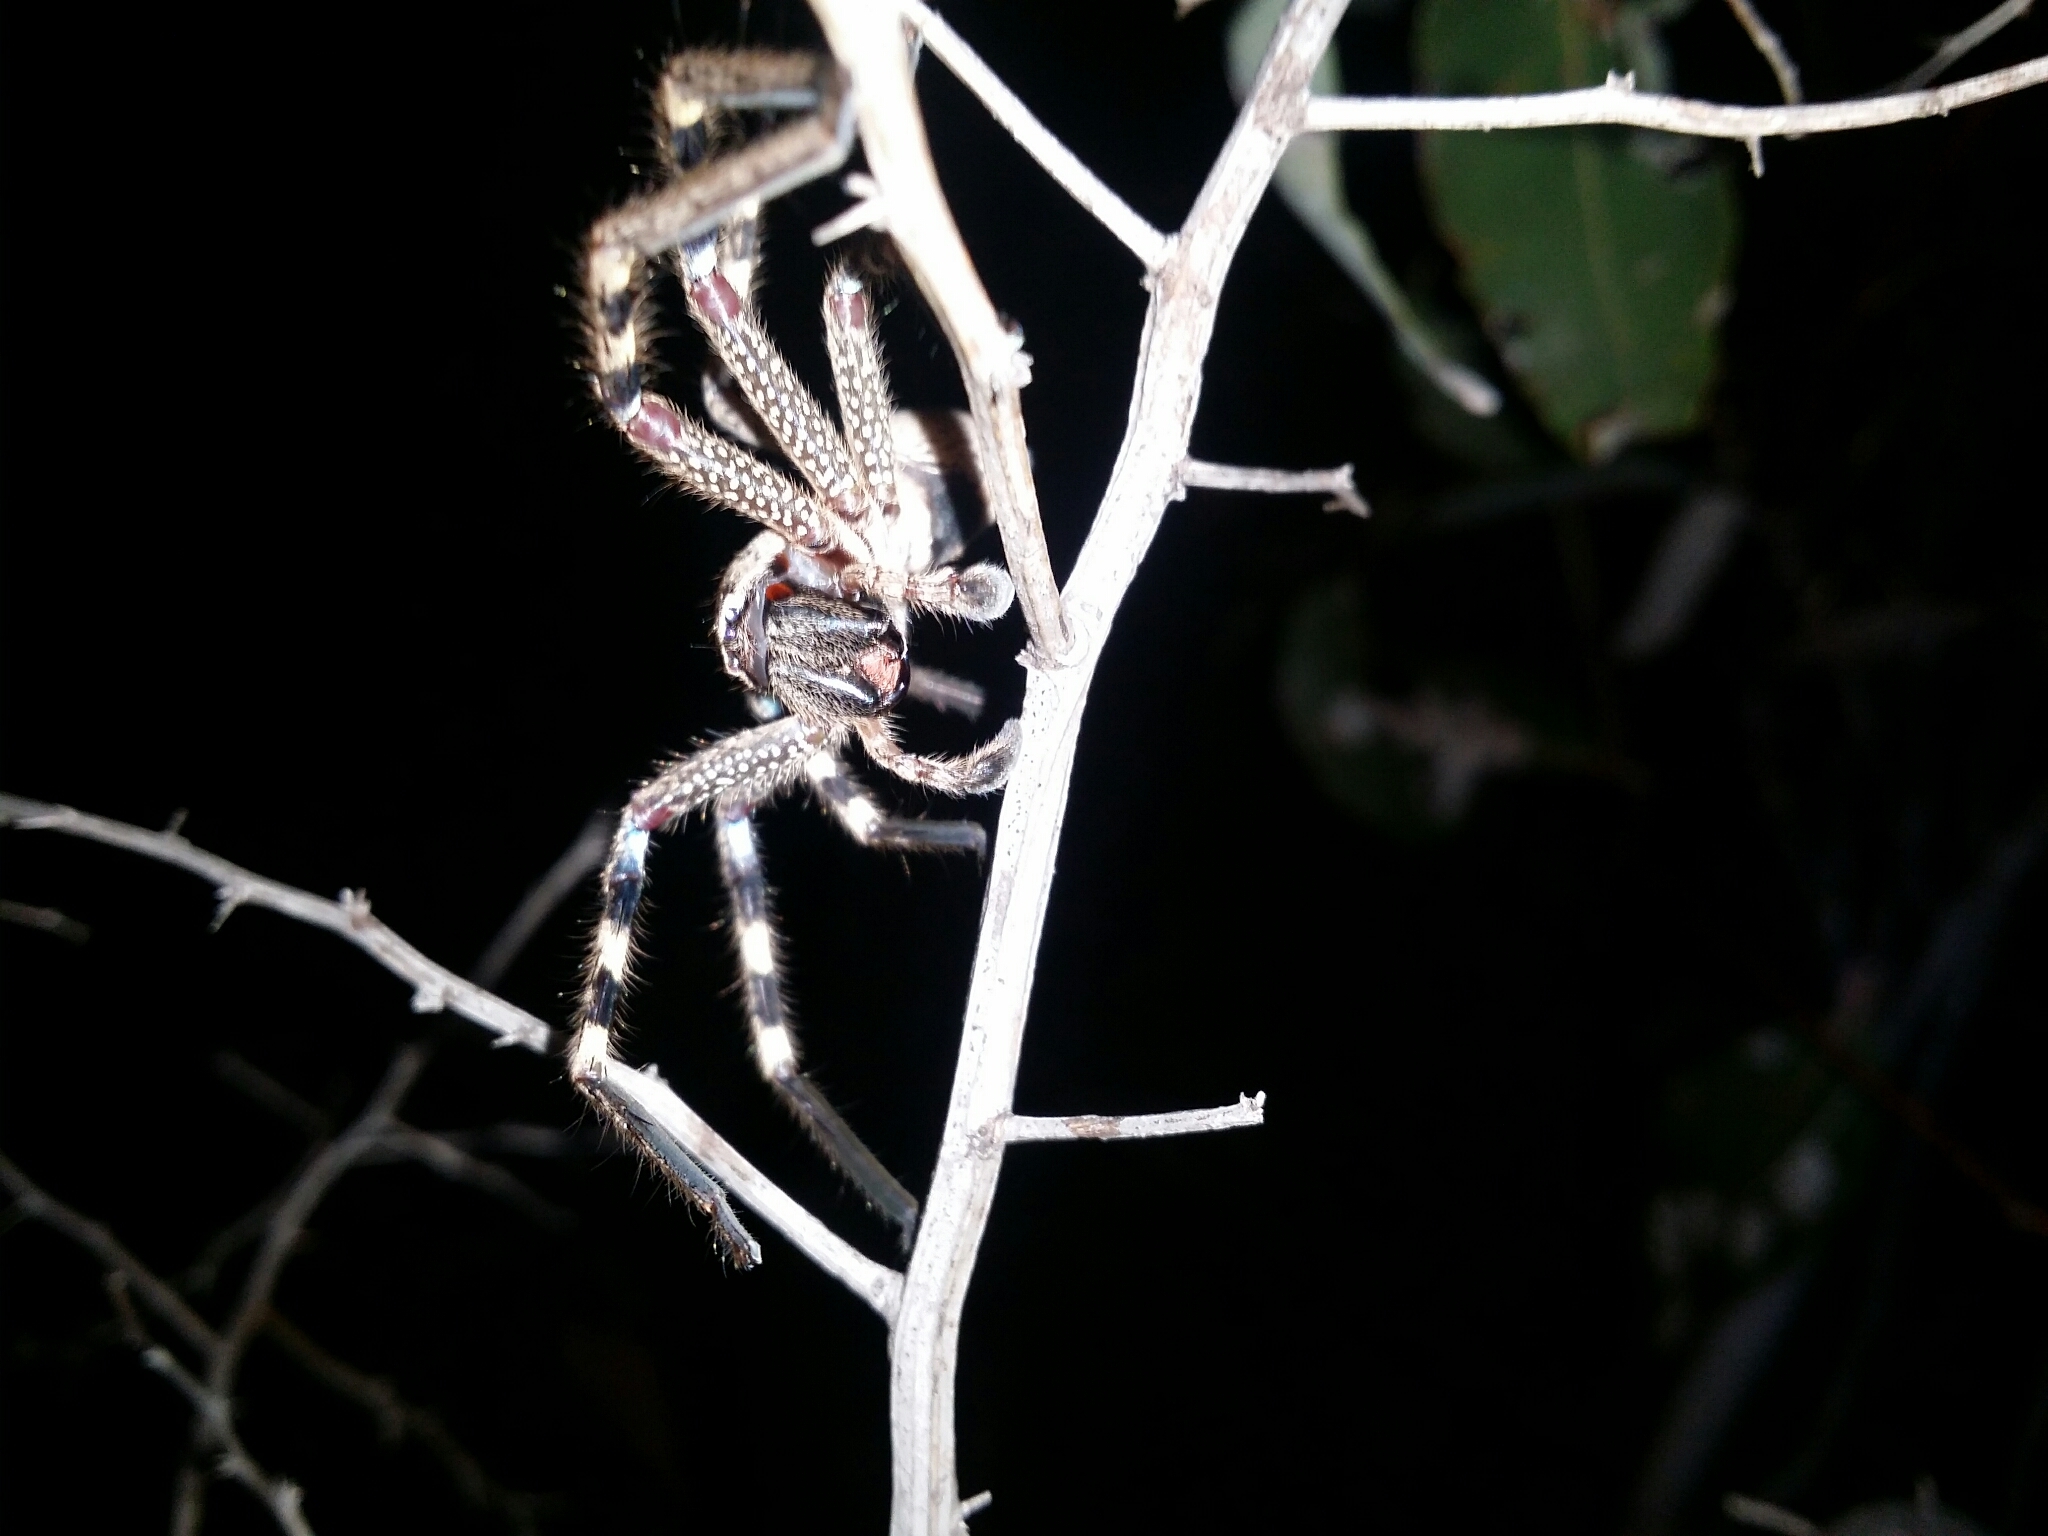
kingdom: Animalia
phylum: Arthropoda
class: Arachnida
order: Araneae
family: Sparassidae
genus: Neosparassus
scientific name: Neosparassus calligaster
